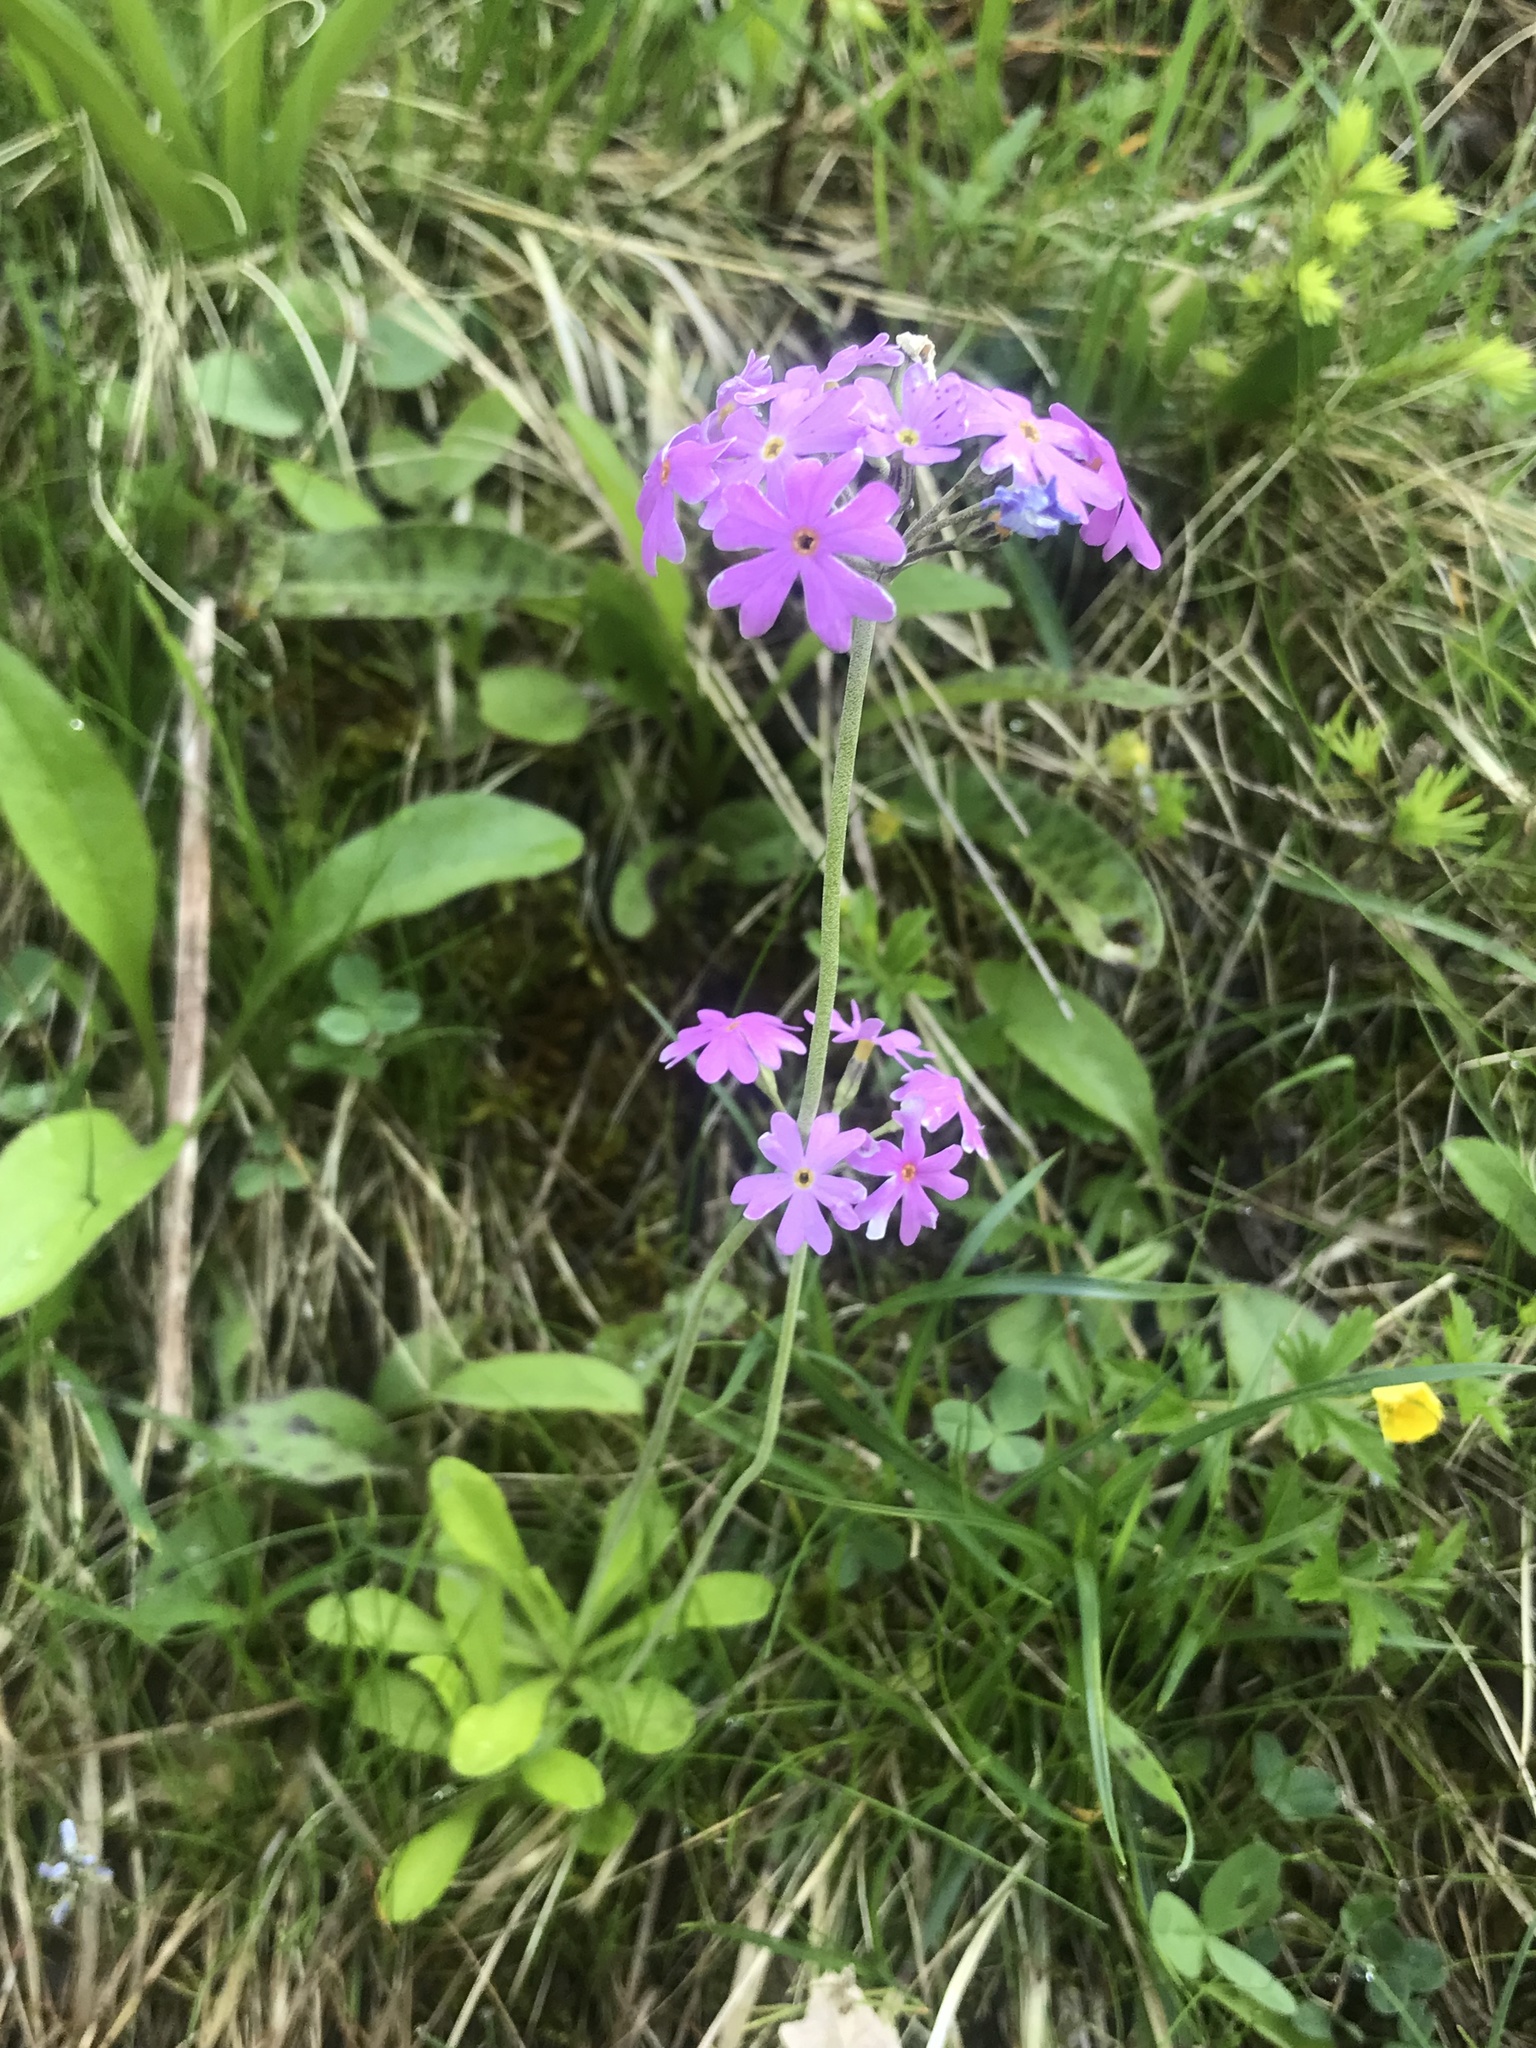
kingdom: Plantae
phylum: Tracheophyta
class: Magnoliopsida
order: Ericales
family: Primulaceae
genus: Primula
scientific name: Primula farinosa
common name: Bird's-eye primrose
